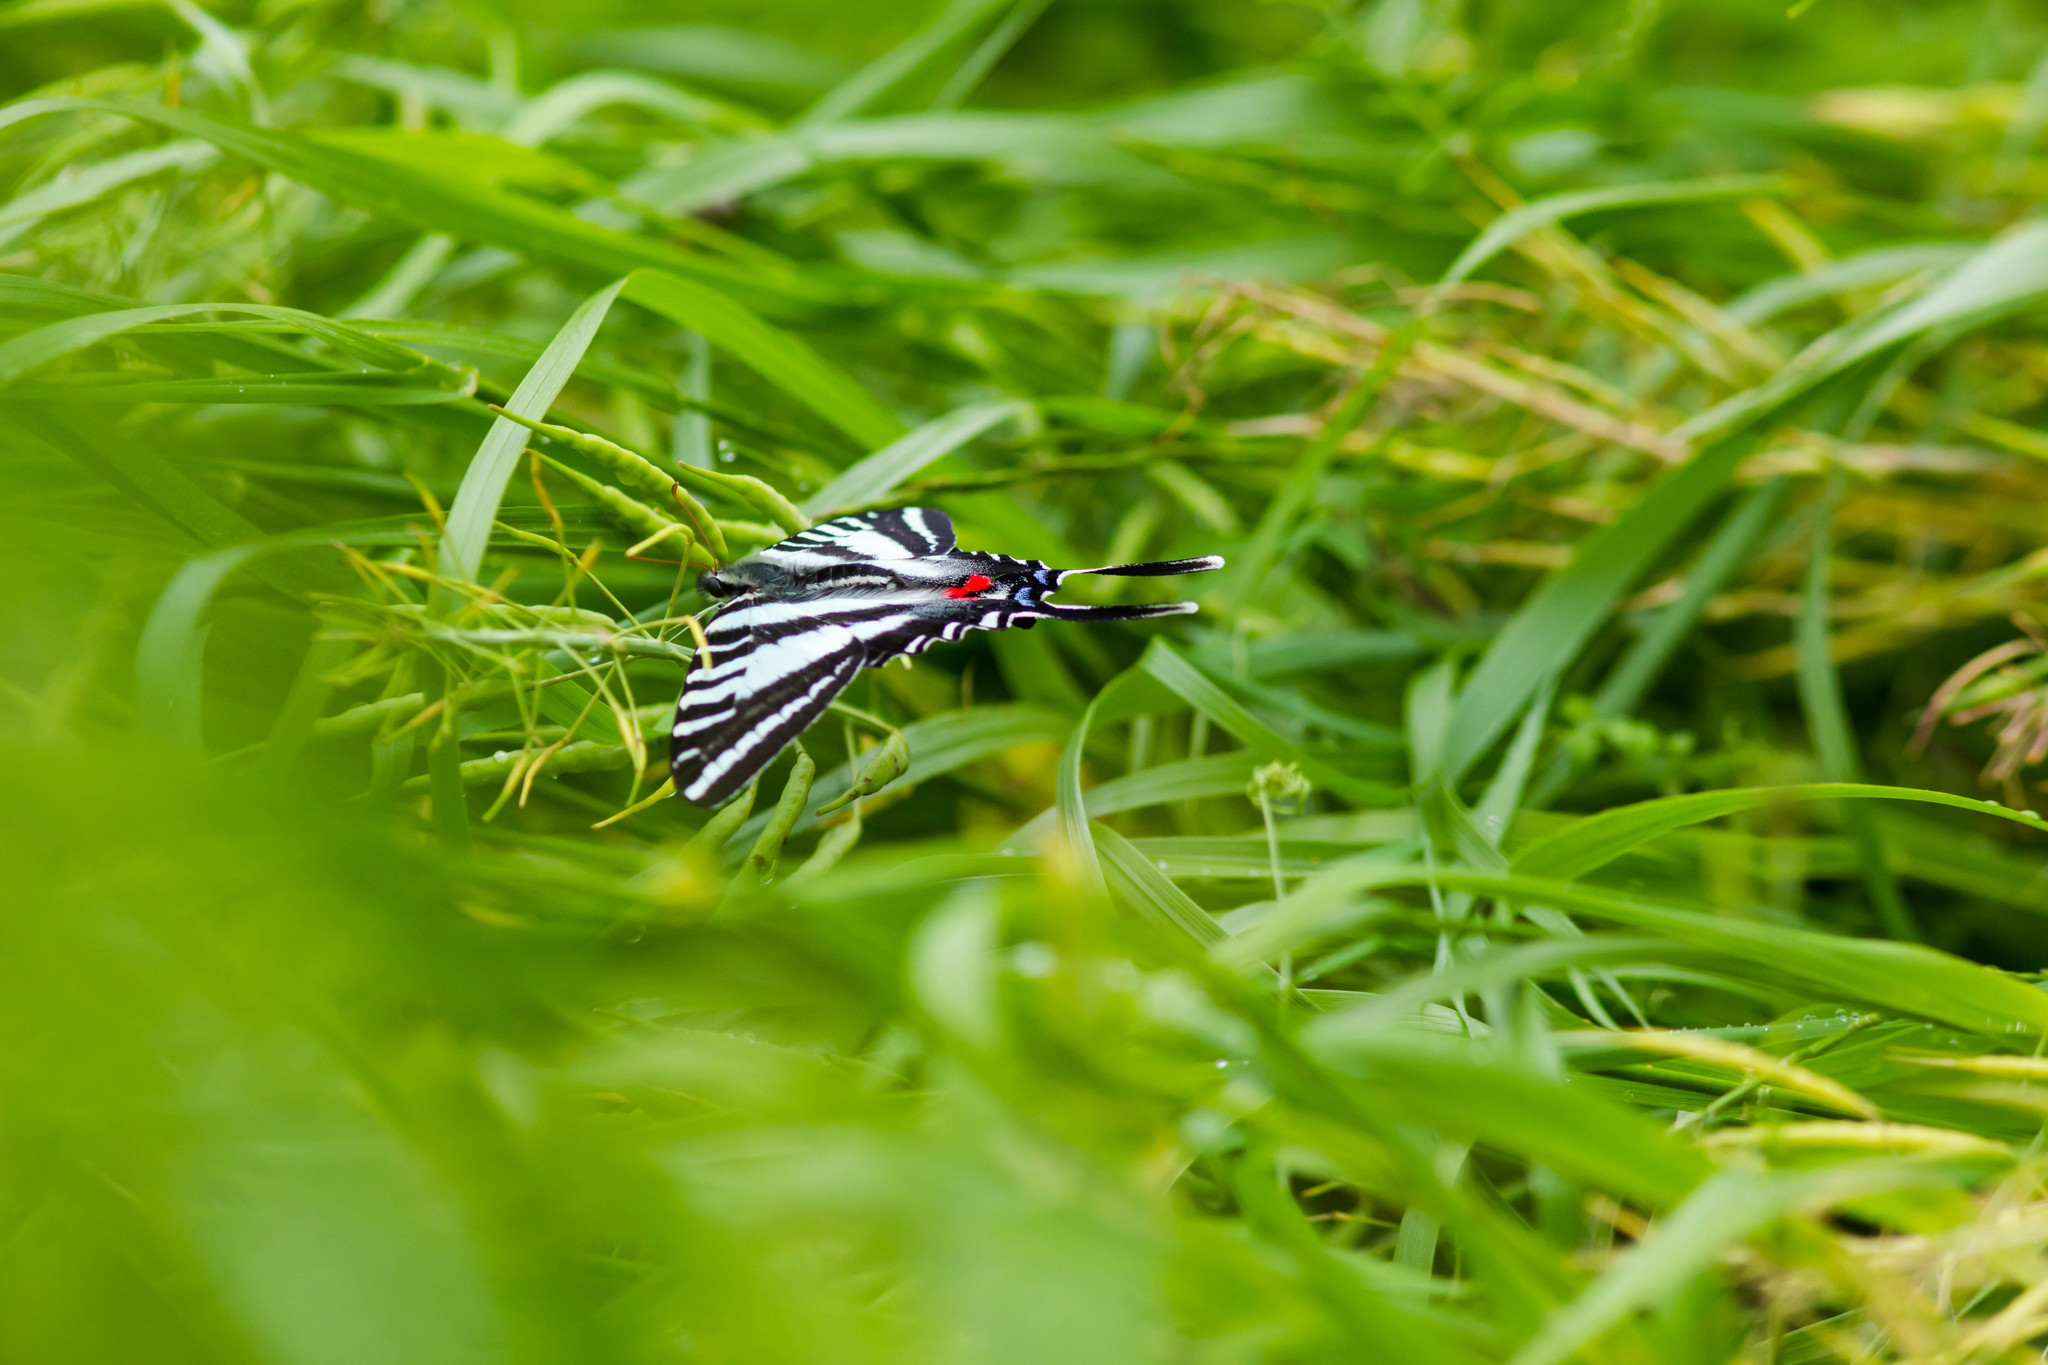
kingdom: Animalia
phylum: Arthropoda
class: Insecta
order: Lepidoptera
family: Papilionidae
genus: Protographium
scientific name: Protographium marcellus
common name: Zebra swallowtail
